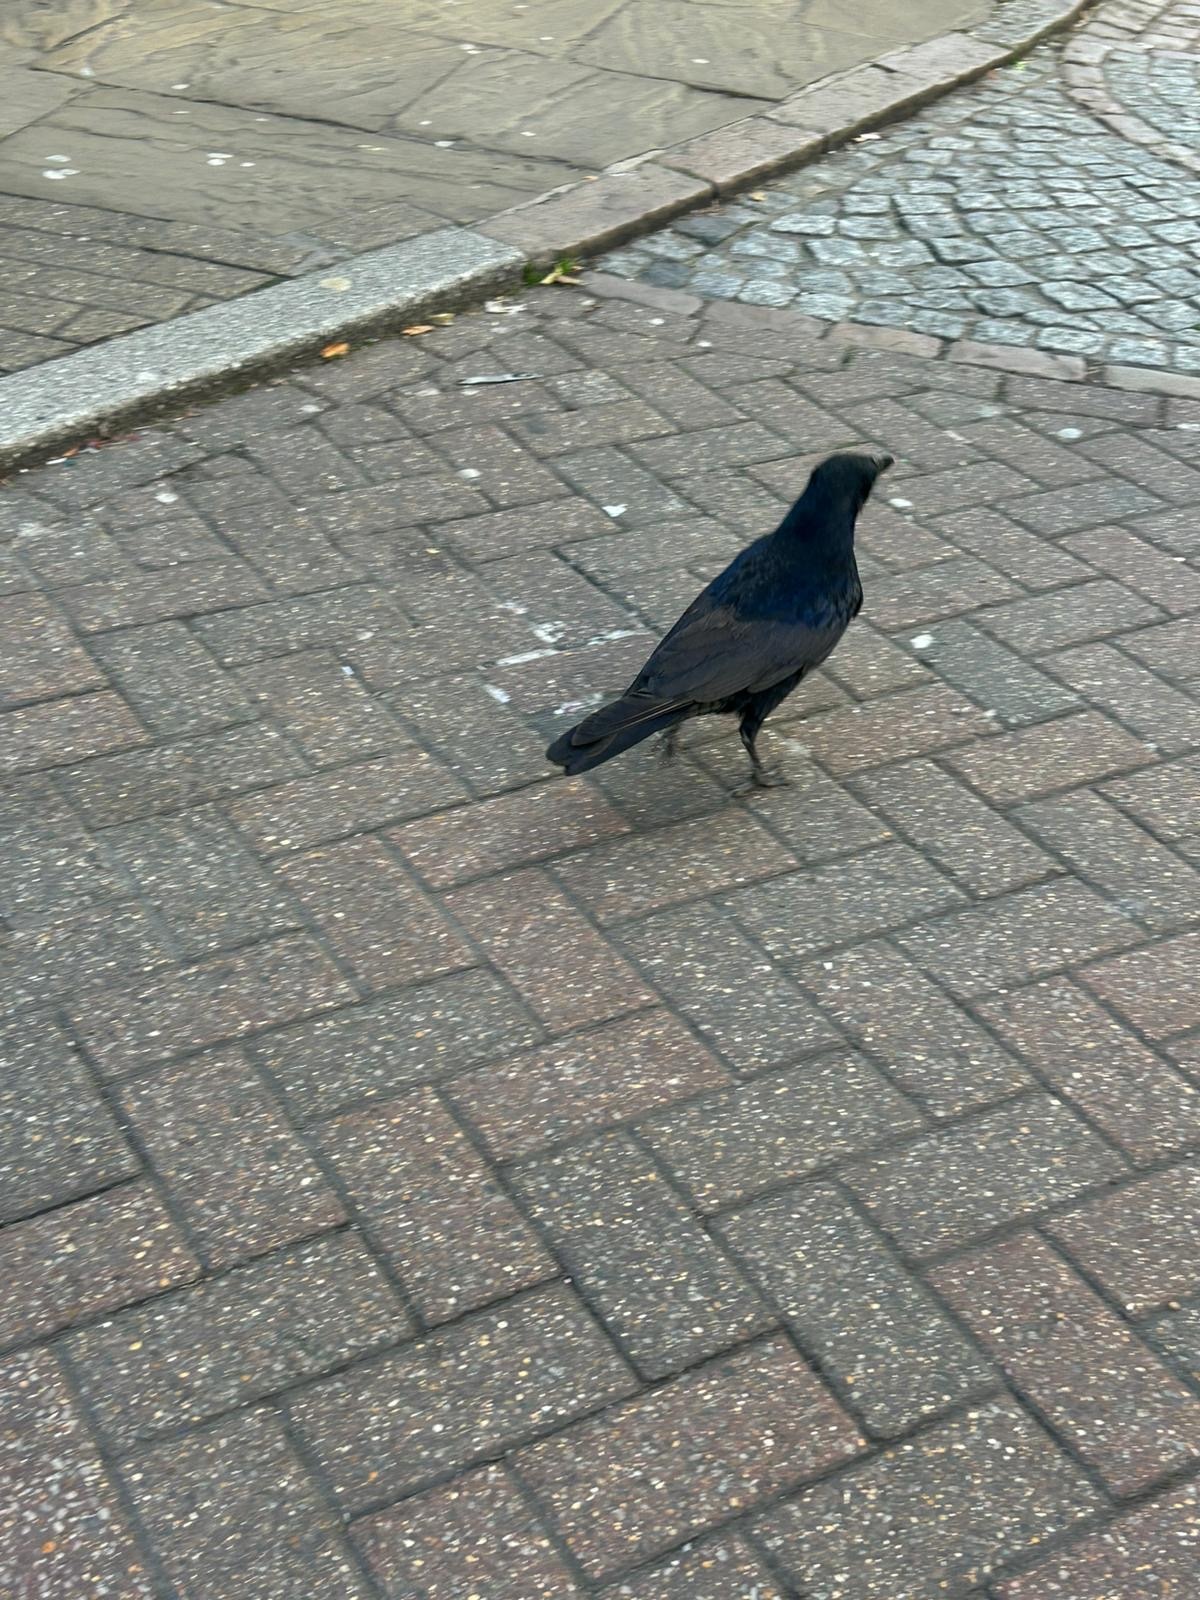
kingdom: Animalia
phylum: Chordata
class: Aves
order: Passeriformes
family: Corvidae
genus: Corvus
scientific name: Corvus corone
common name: Carrion crow
